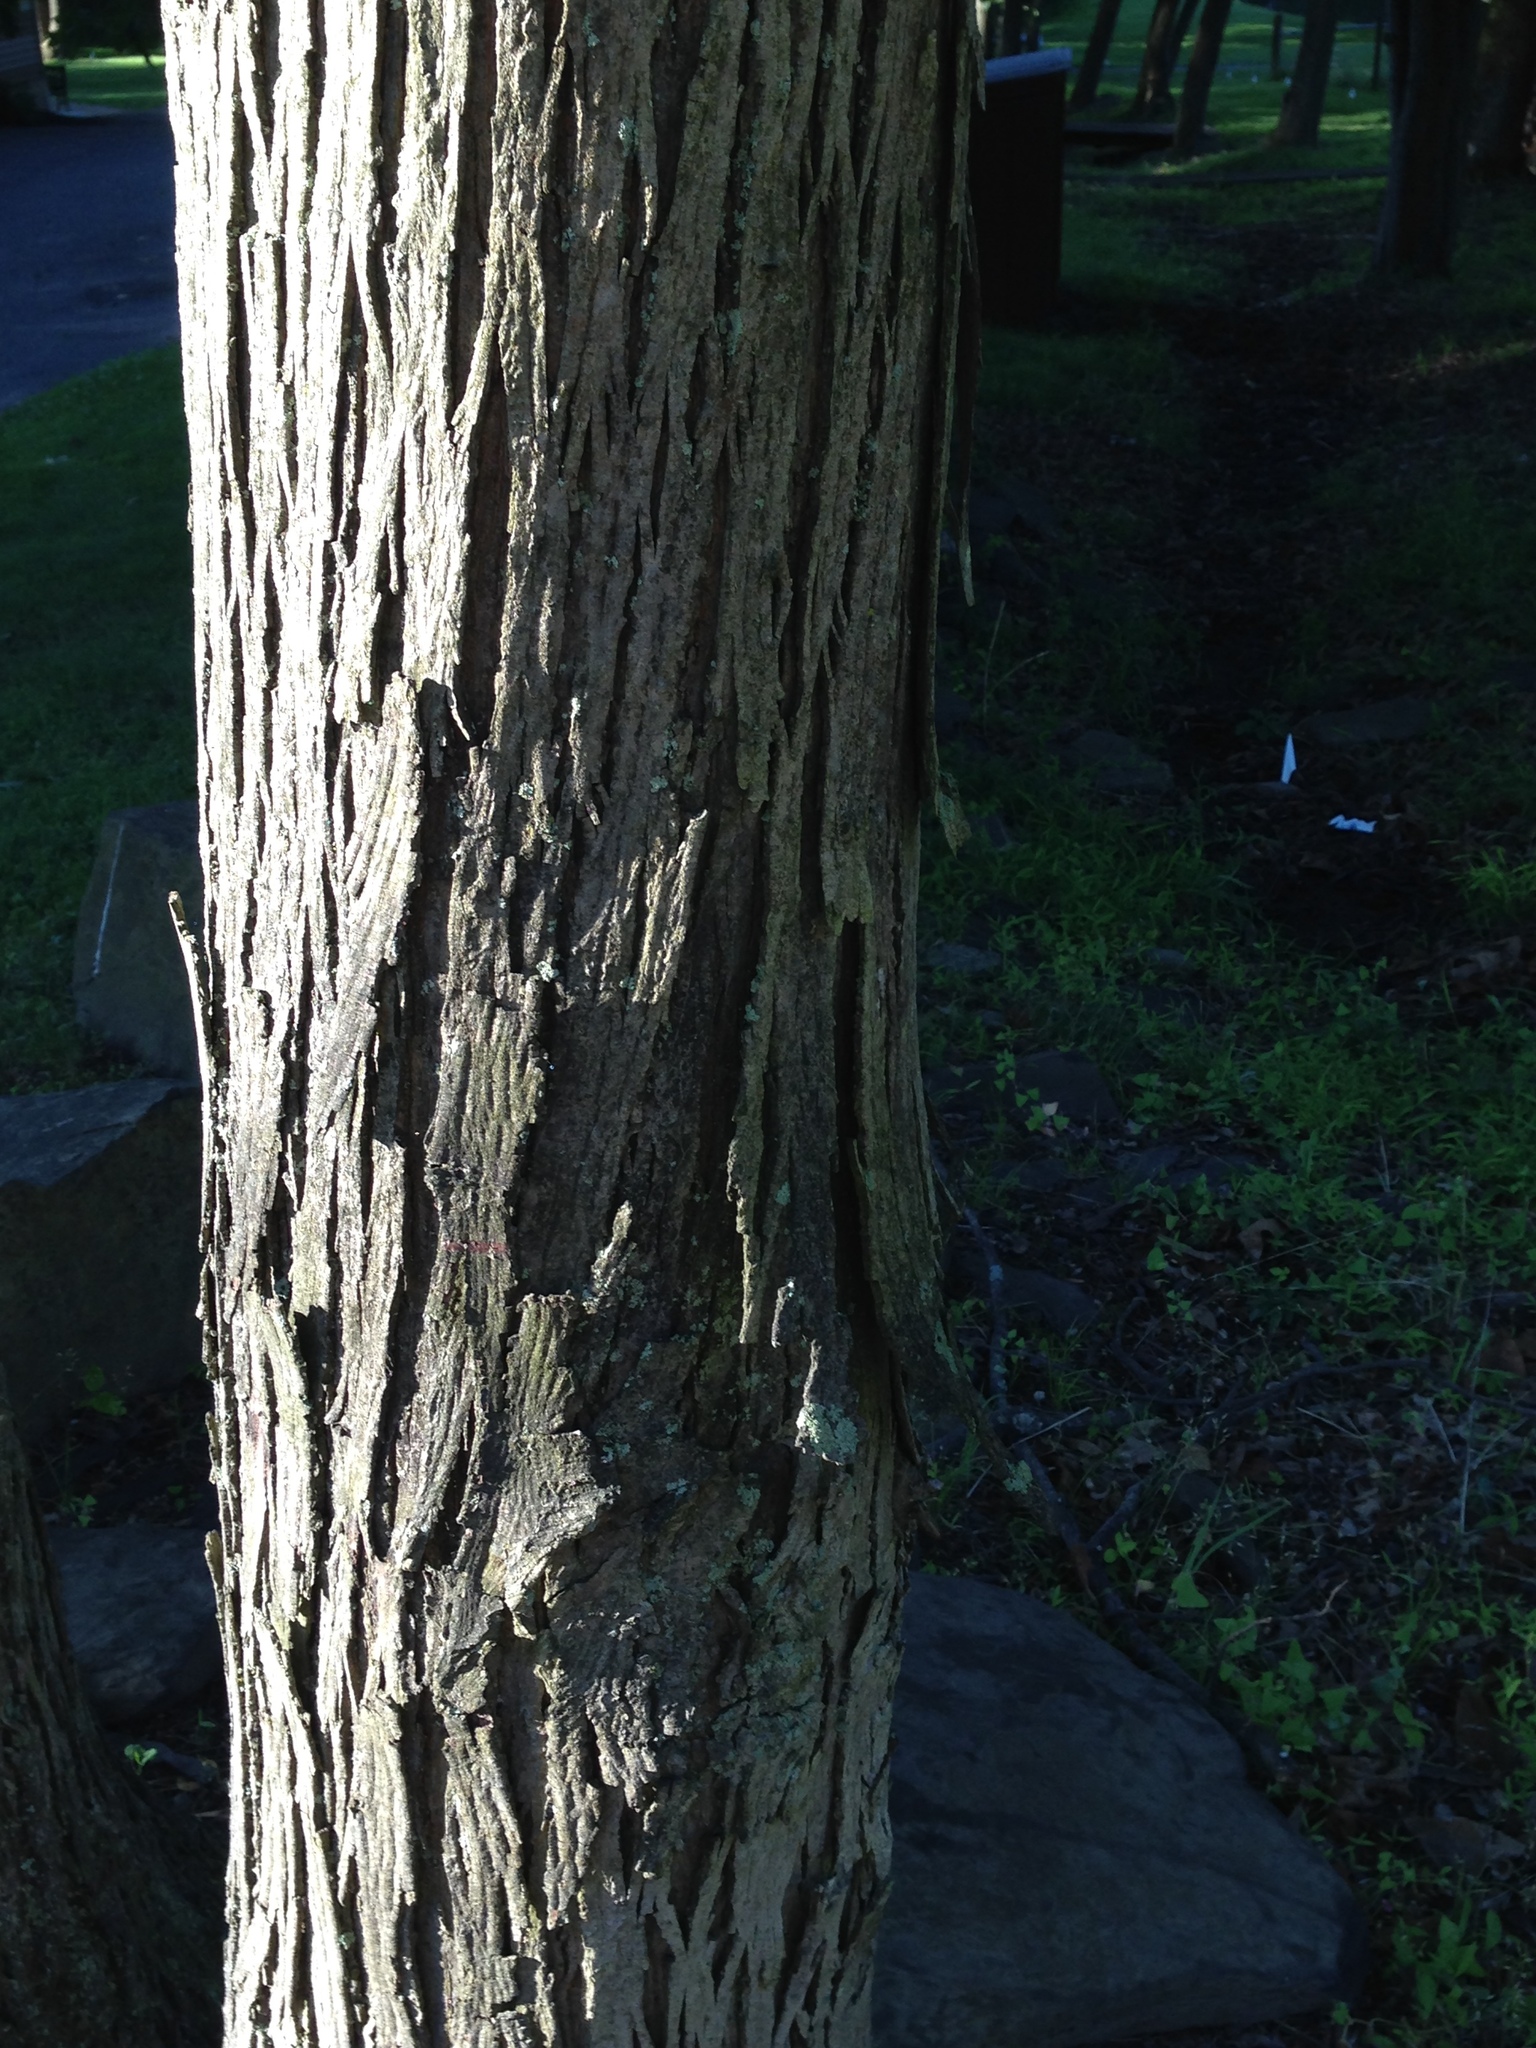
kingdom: Plantae
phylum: Tracheophyta
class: Magnoliopsida
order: Fagales
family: Juglandaceae
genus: Carya
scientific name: Carya ovata
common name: Shagbark hickory
